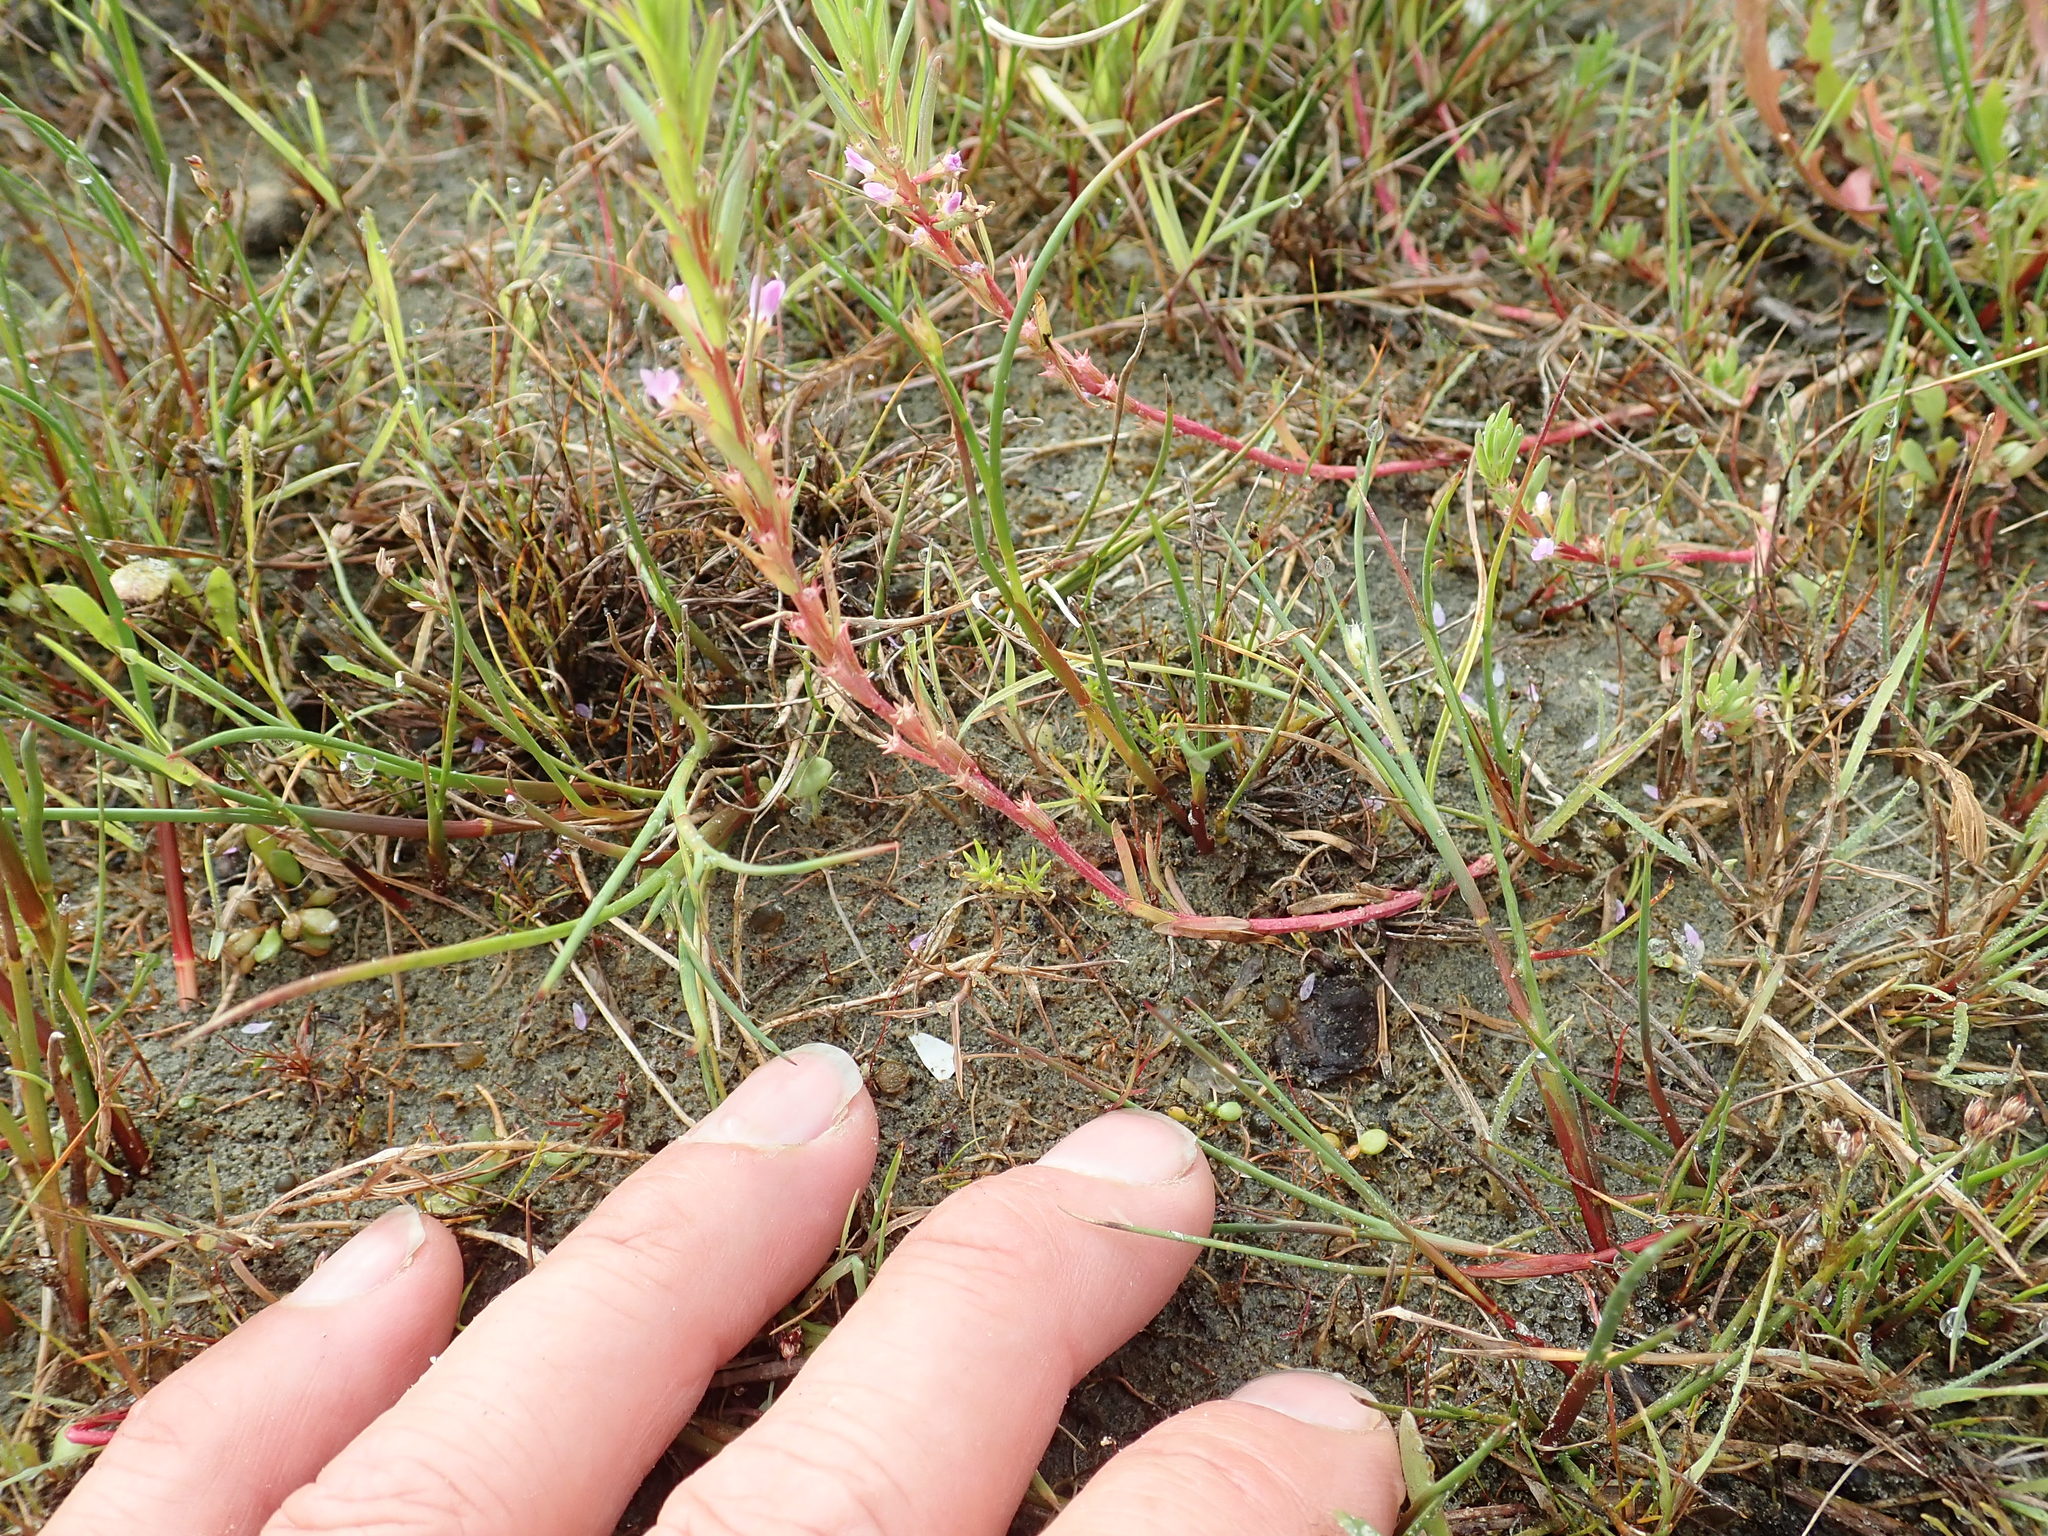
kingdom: Plantae
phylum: Tracheophyta
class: Magnoliopsida
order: Myrtales
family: Lythraceae
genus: Lythrum
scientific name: Lythrum hyssopifolia
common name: Grass-poly
